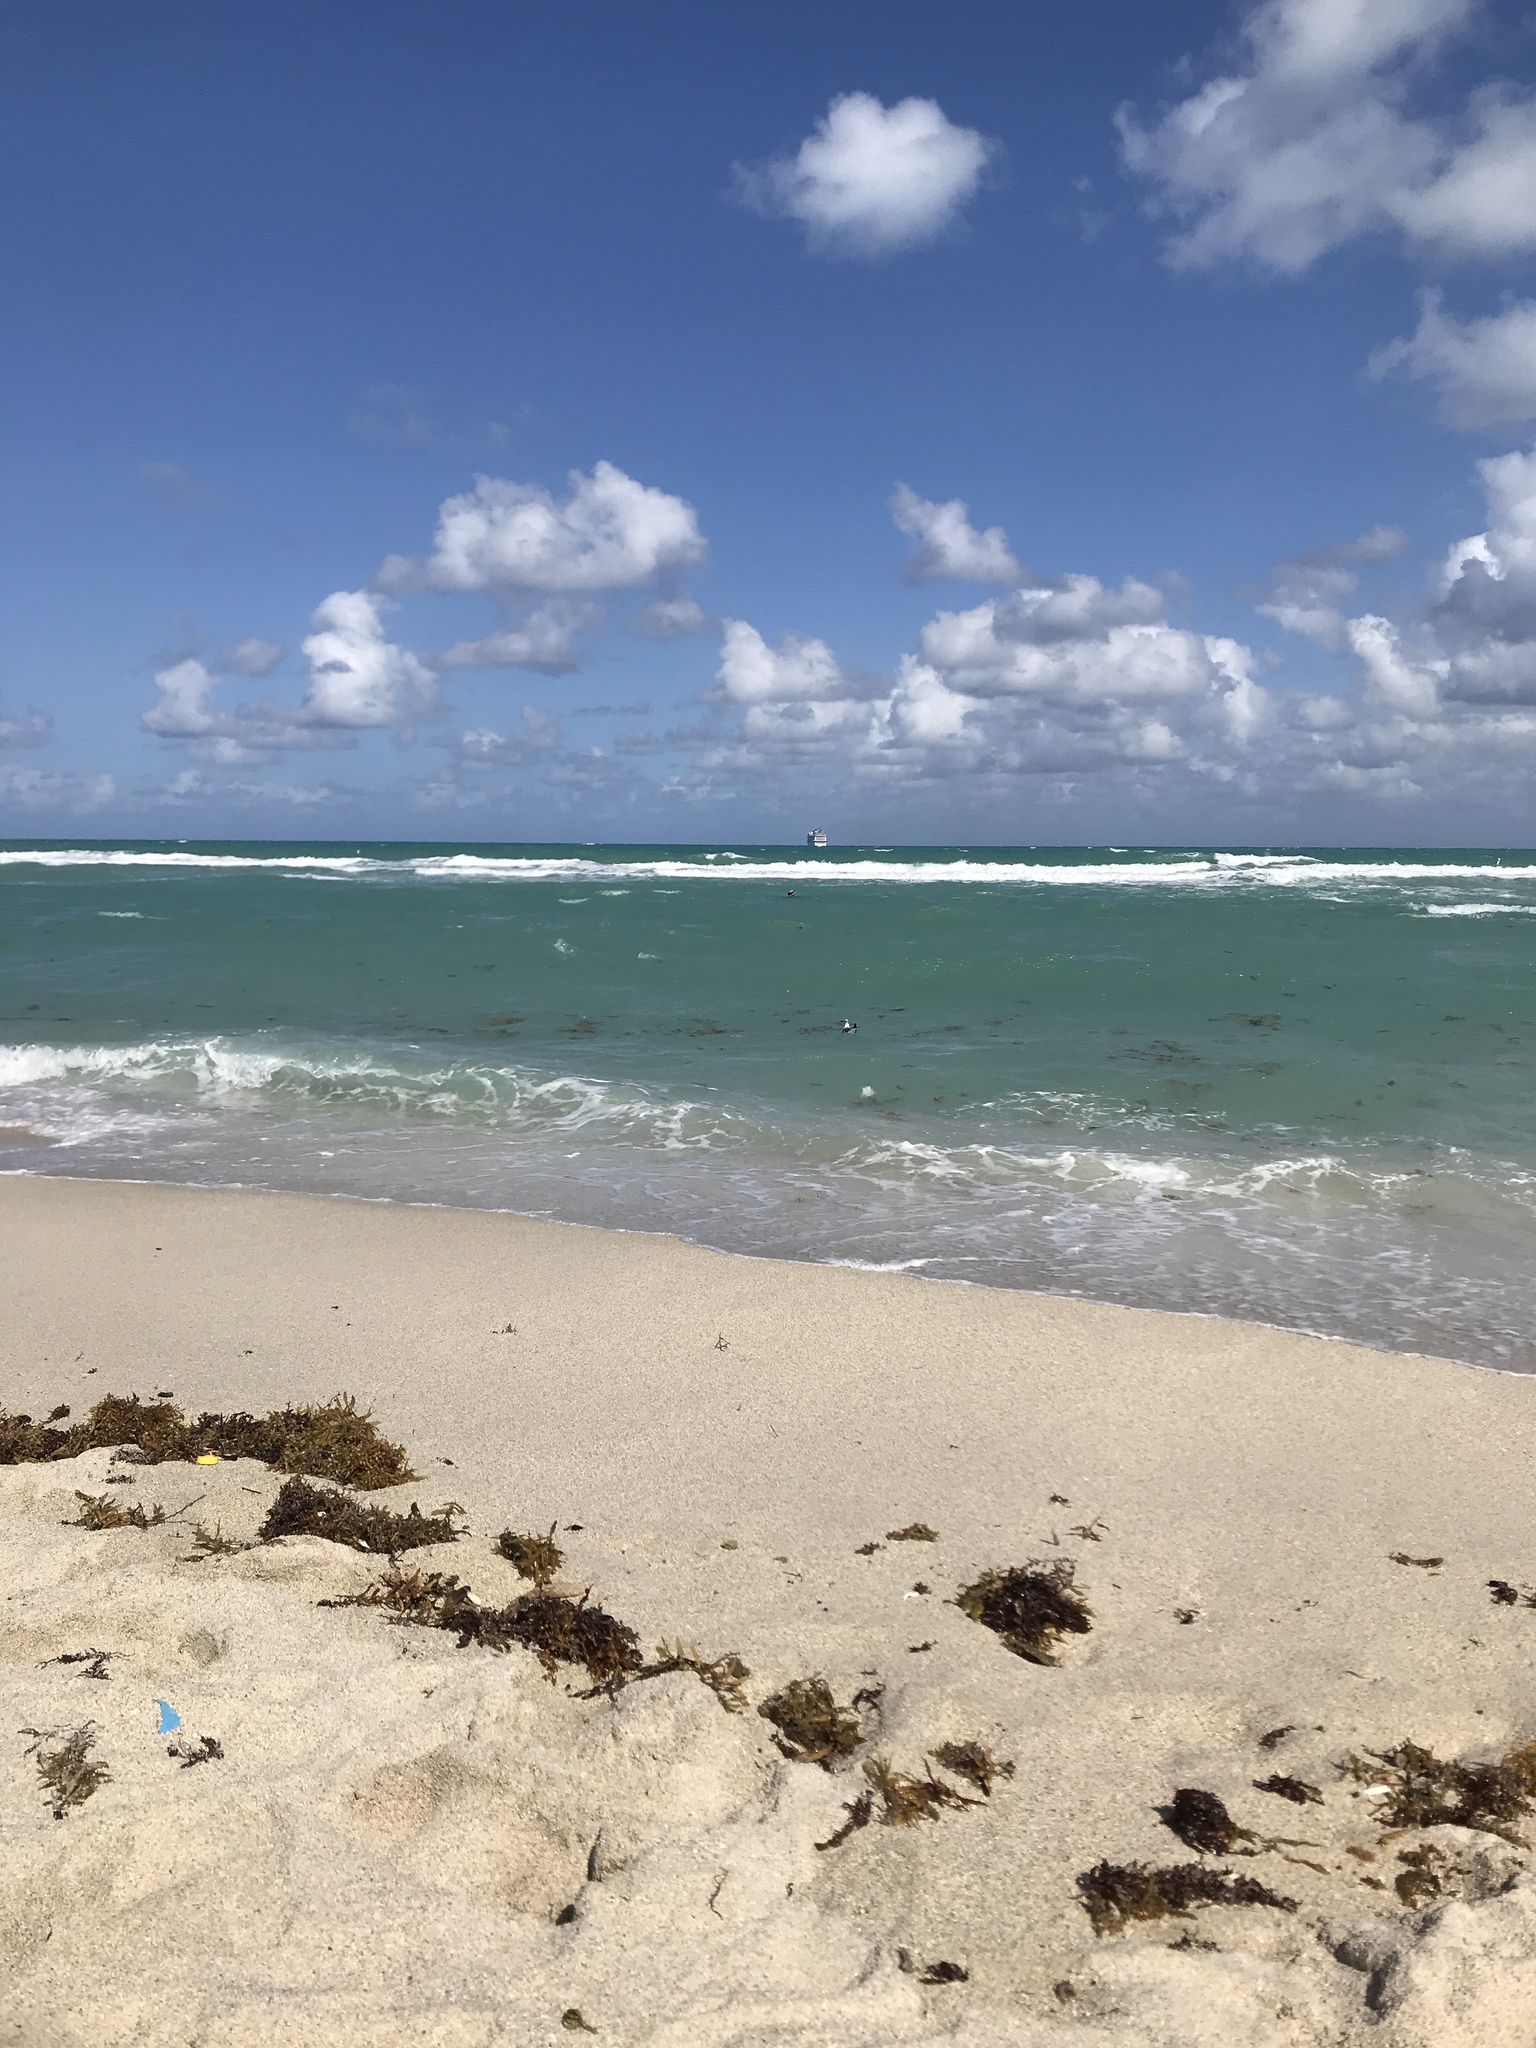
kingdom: Animalia
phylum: Chordata
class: Aves
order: Charadriiformes
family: Laridae
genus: Leucophaeus
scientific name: Leucophaeus atricilla
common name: Laughing gull
